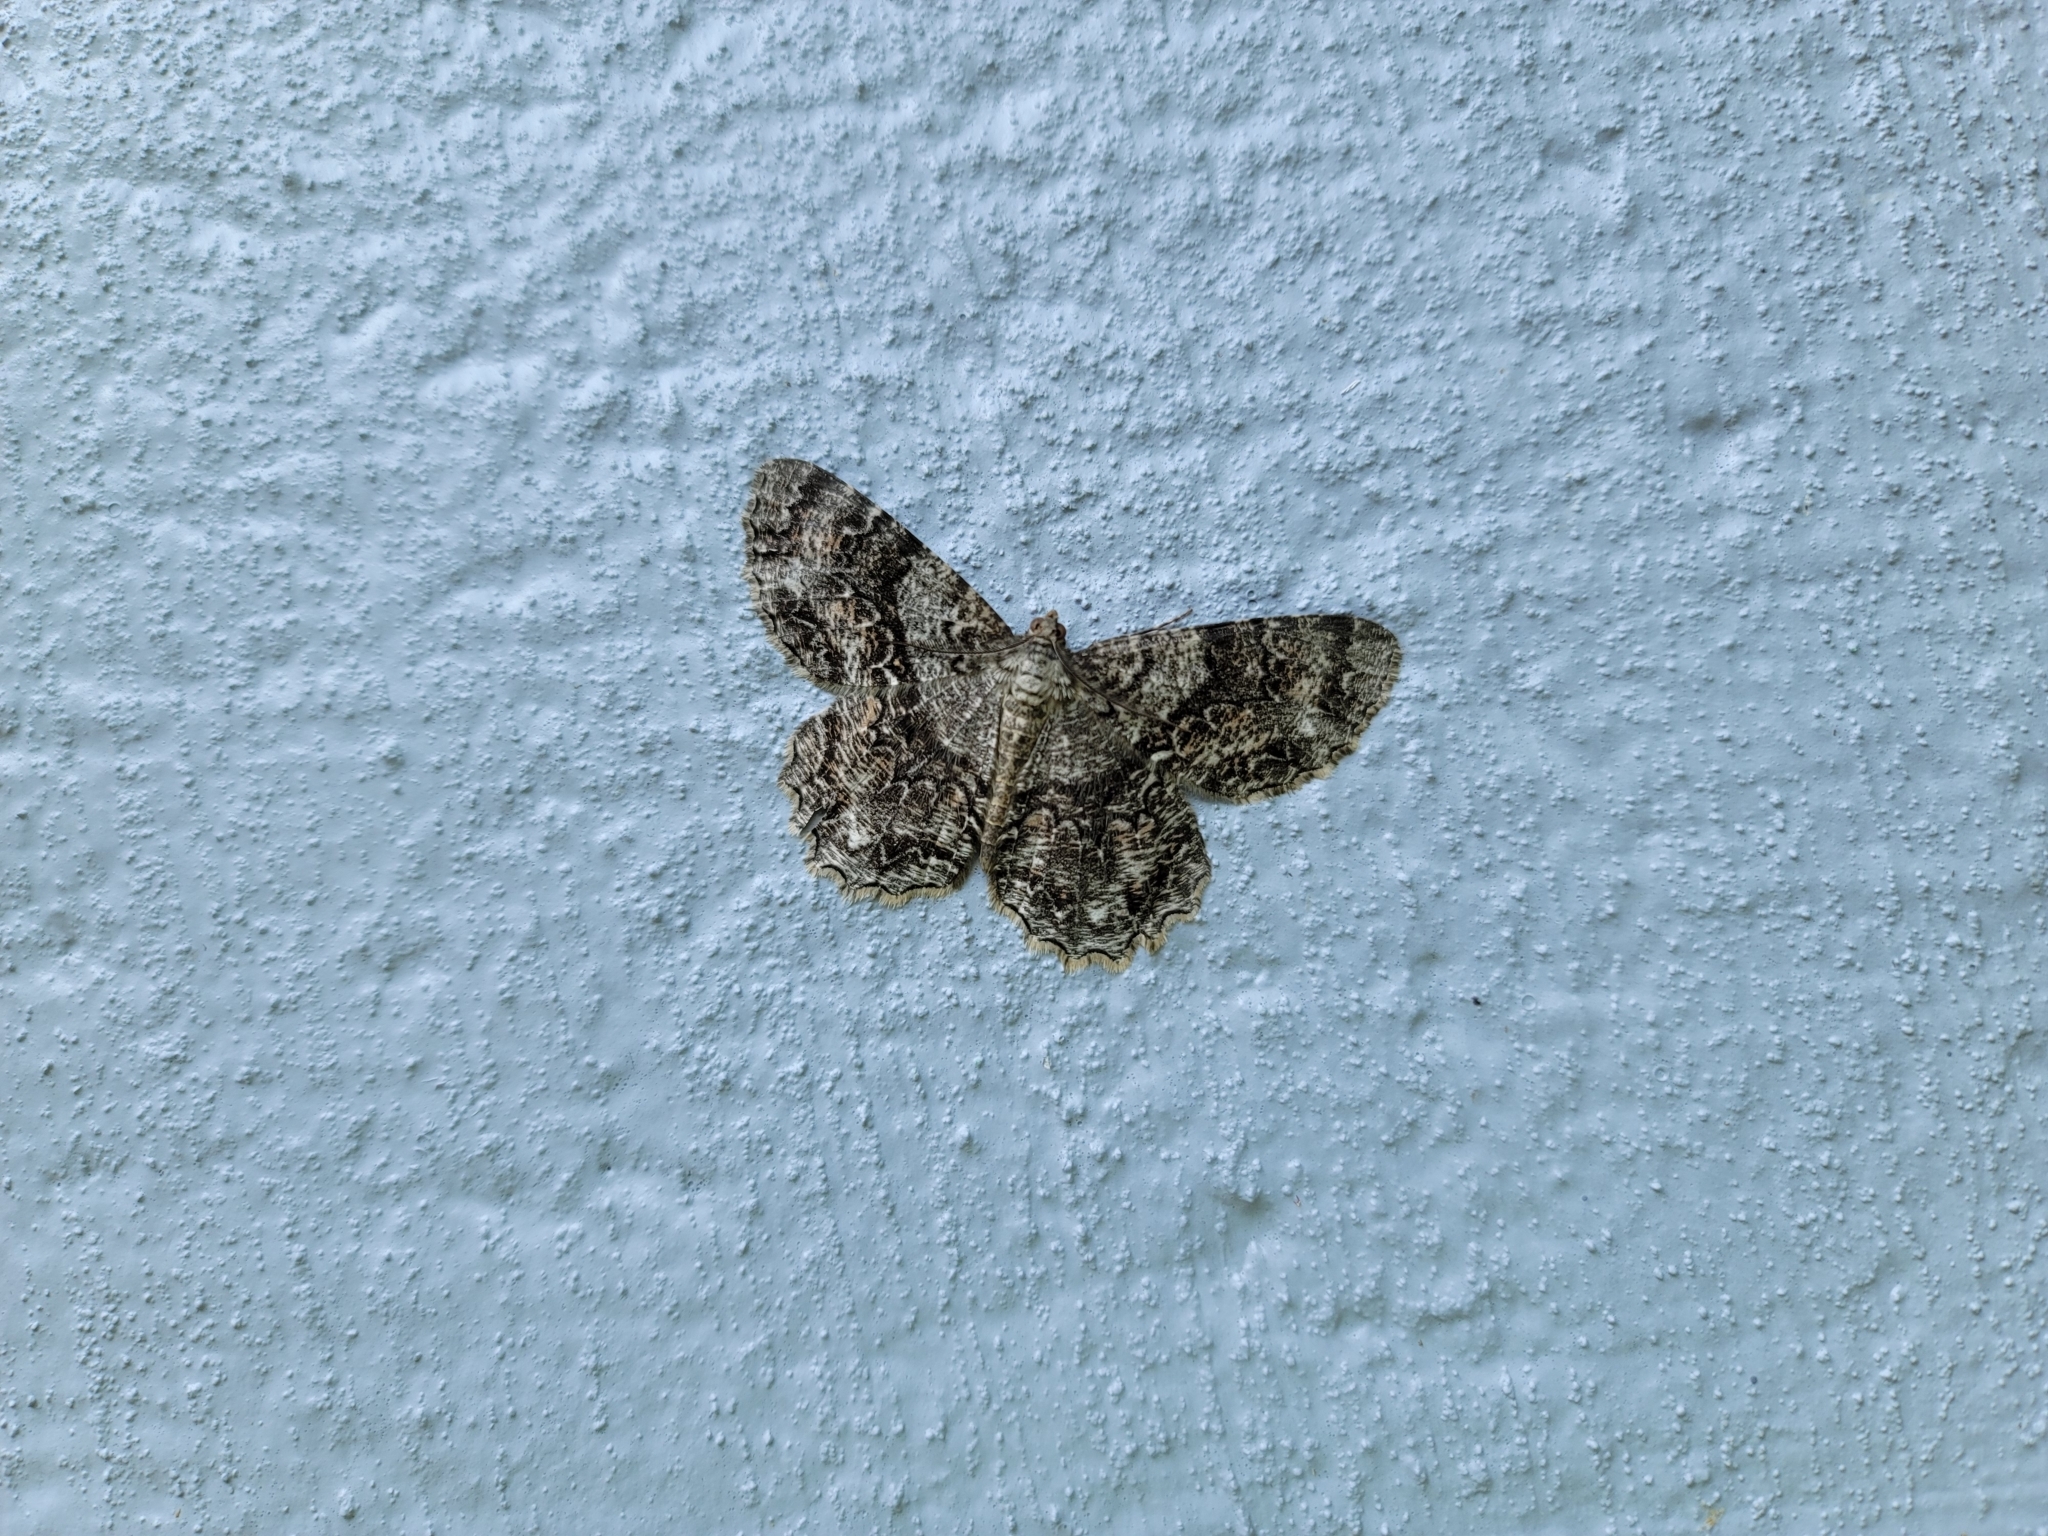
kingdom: Animalia
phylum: Arthropoda
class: Insecta
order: Lepidoptera
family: Geometridae
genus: Epimecis
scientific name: Epimecis hortaria
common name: Tulip-tree beauty
